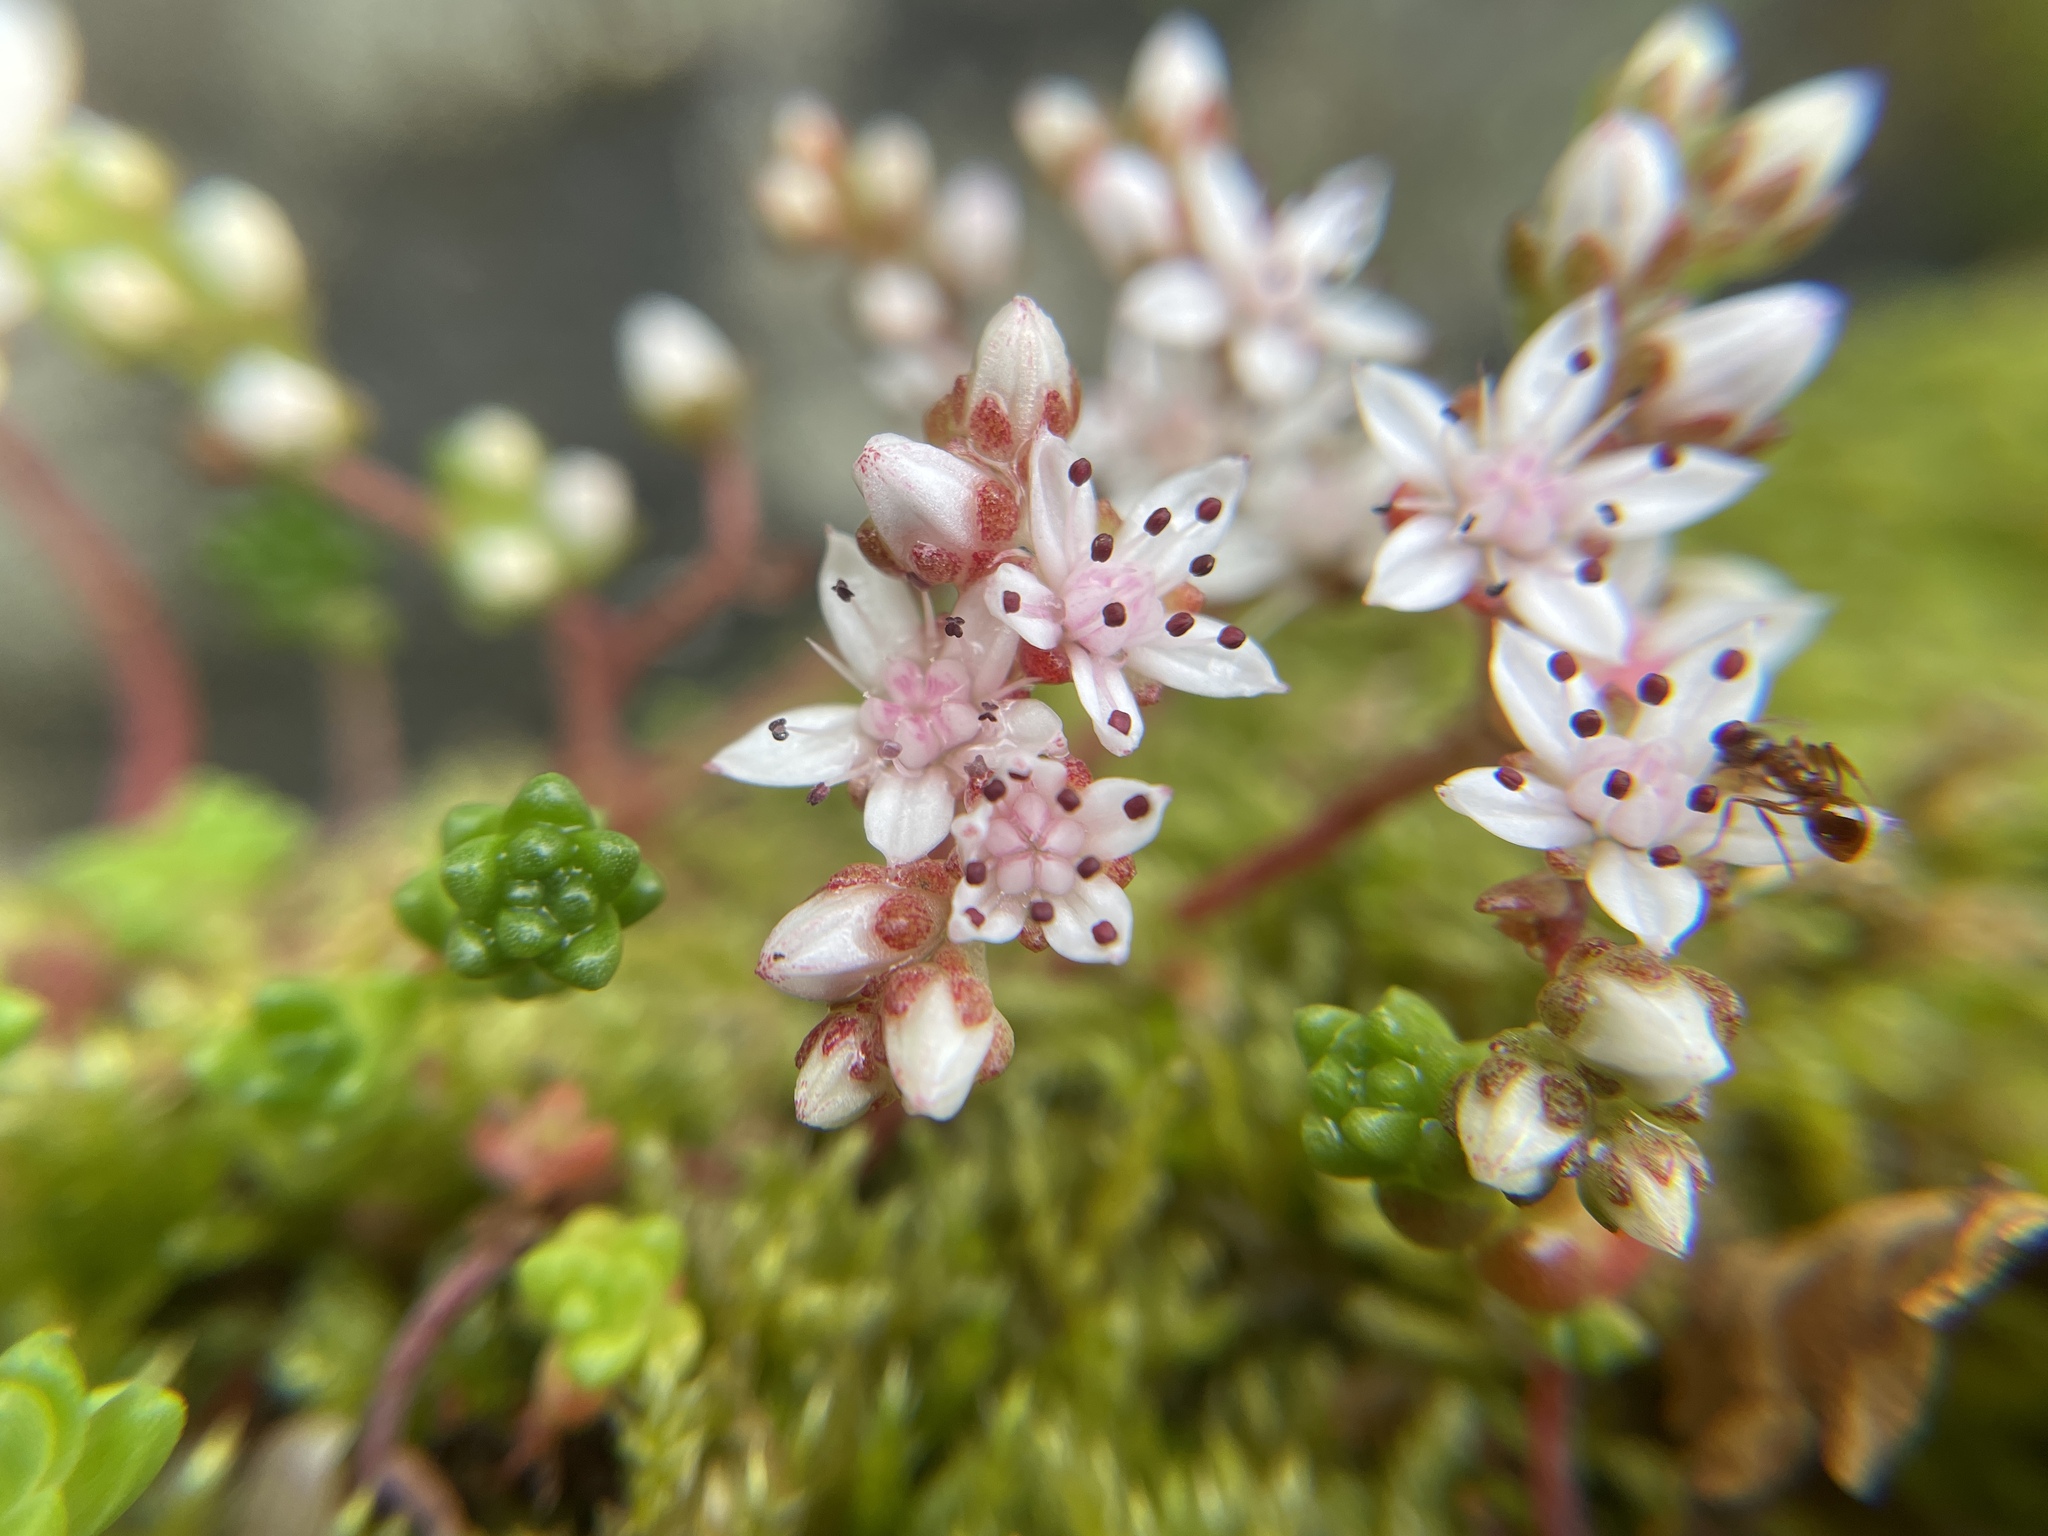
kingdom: Plantae
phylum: Tracheophyta
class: Magnoliopsida
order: Saxifragales
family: Crassulaceae
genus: Sedum
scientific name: Sedum anglicum
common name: English stonecrop
